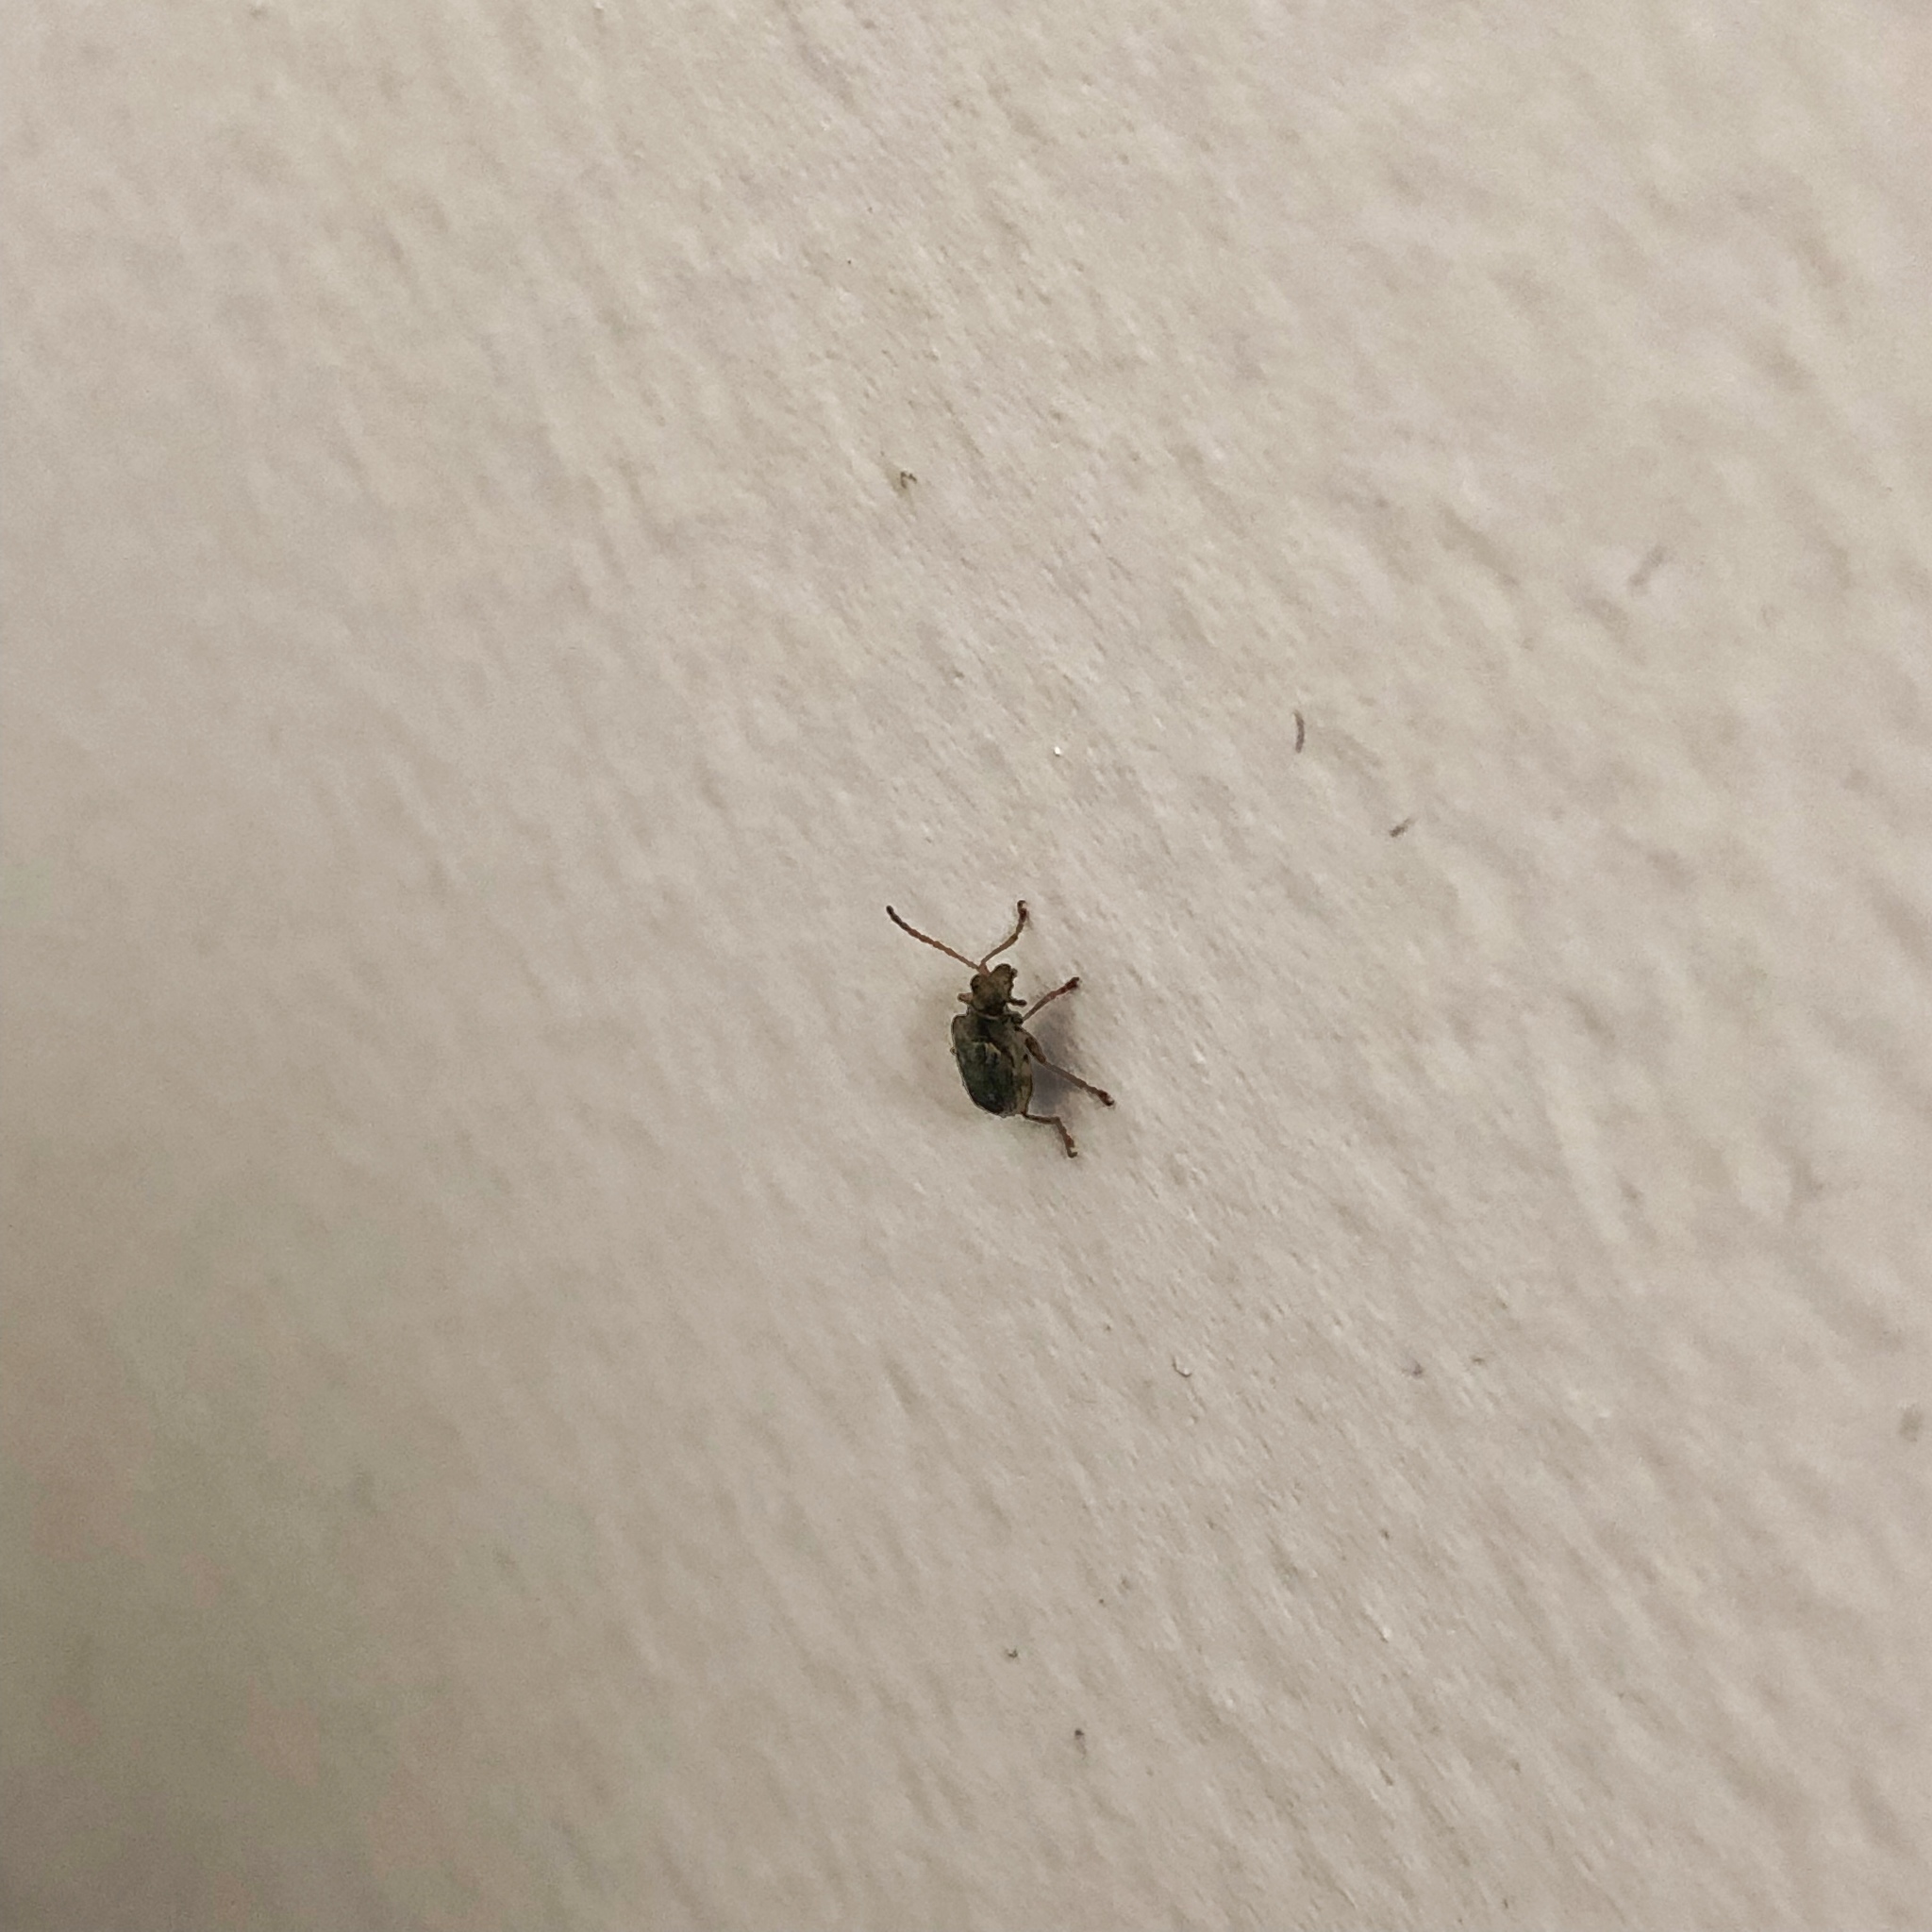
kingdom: Animalia
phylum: Arthropoda
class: Insecta
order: Coleoptera
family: Chrysomelidae
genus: Neolema
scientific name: Neolema ogloblini
